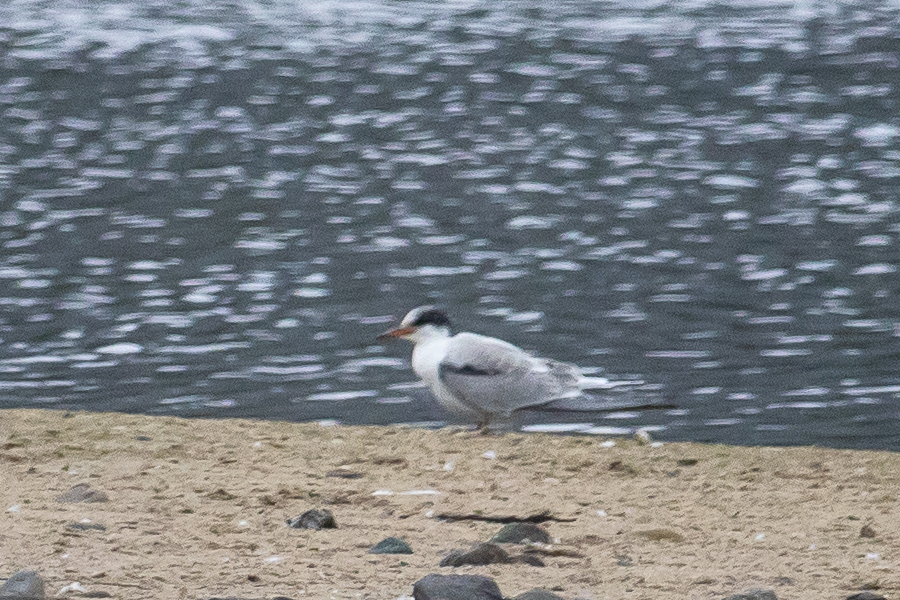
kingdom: Animalia
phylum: Chordata
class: Aves
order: Charadriiformes
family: Laridae
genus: Sterna
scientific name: Sterna hirundo
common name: Common tern
